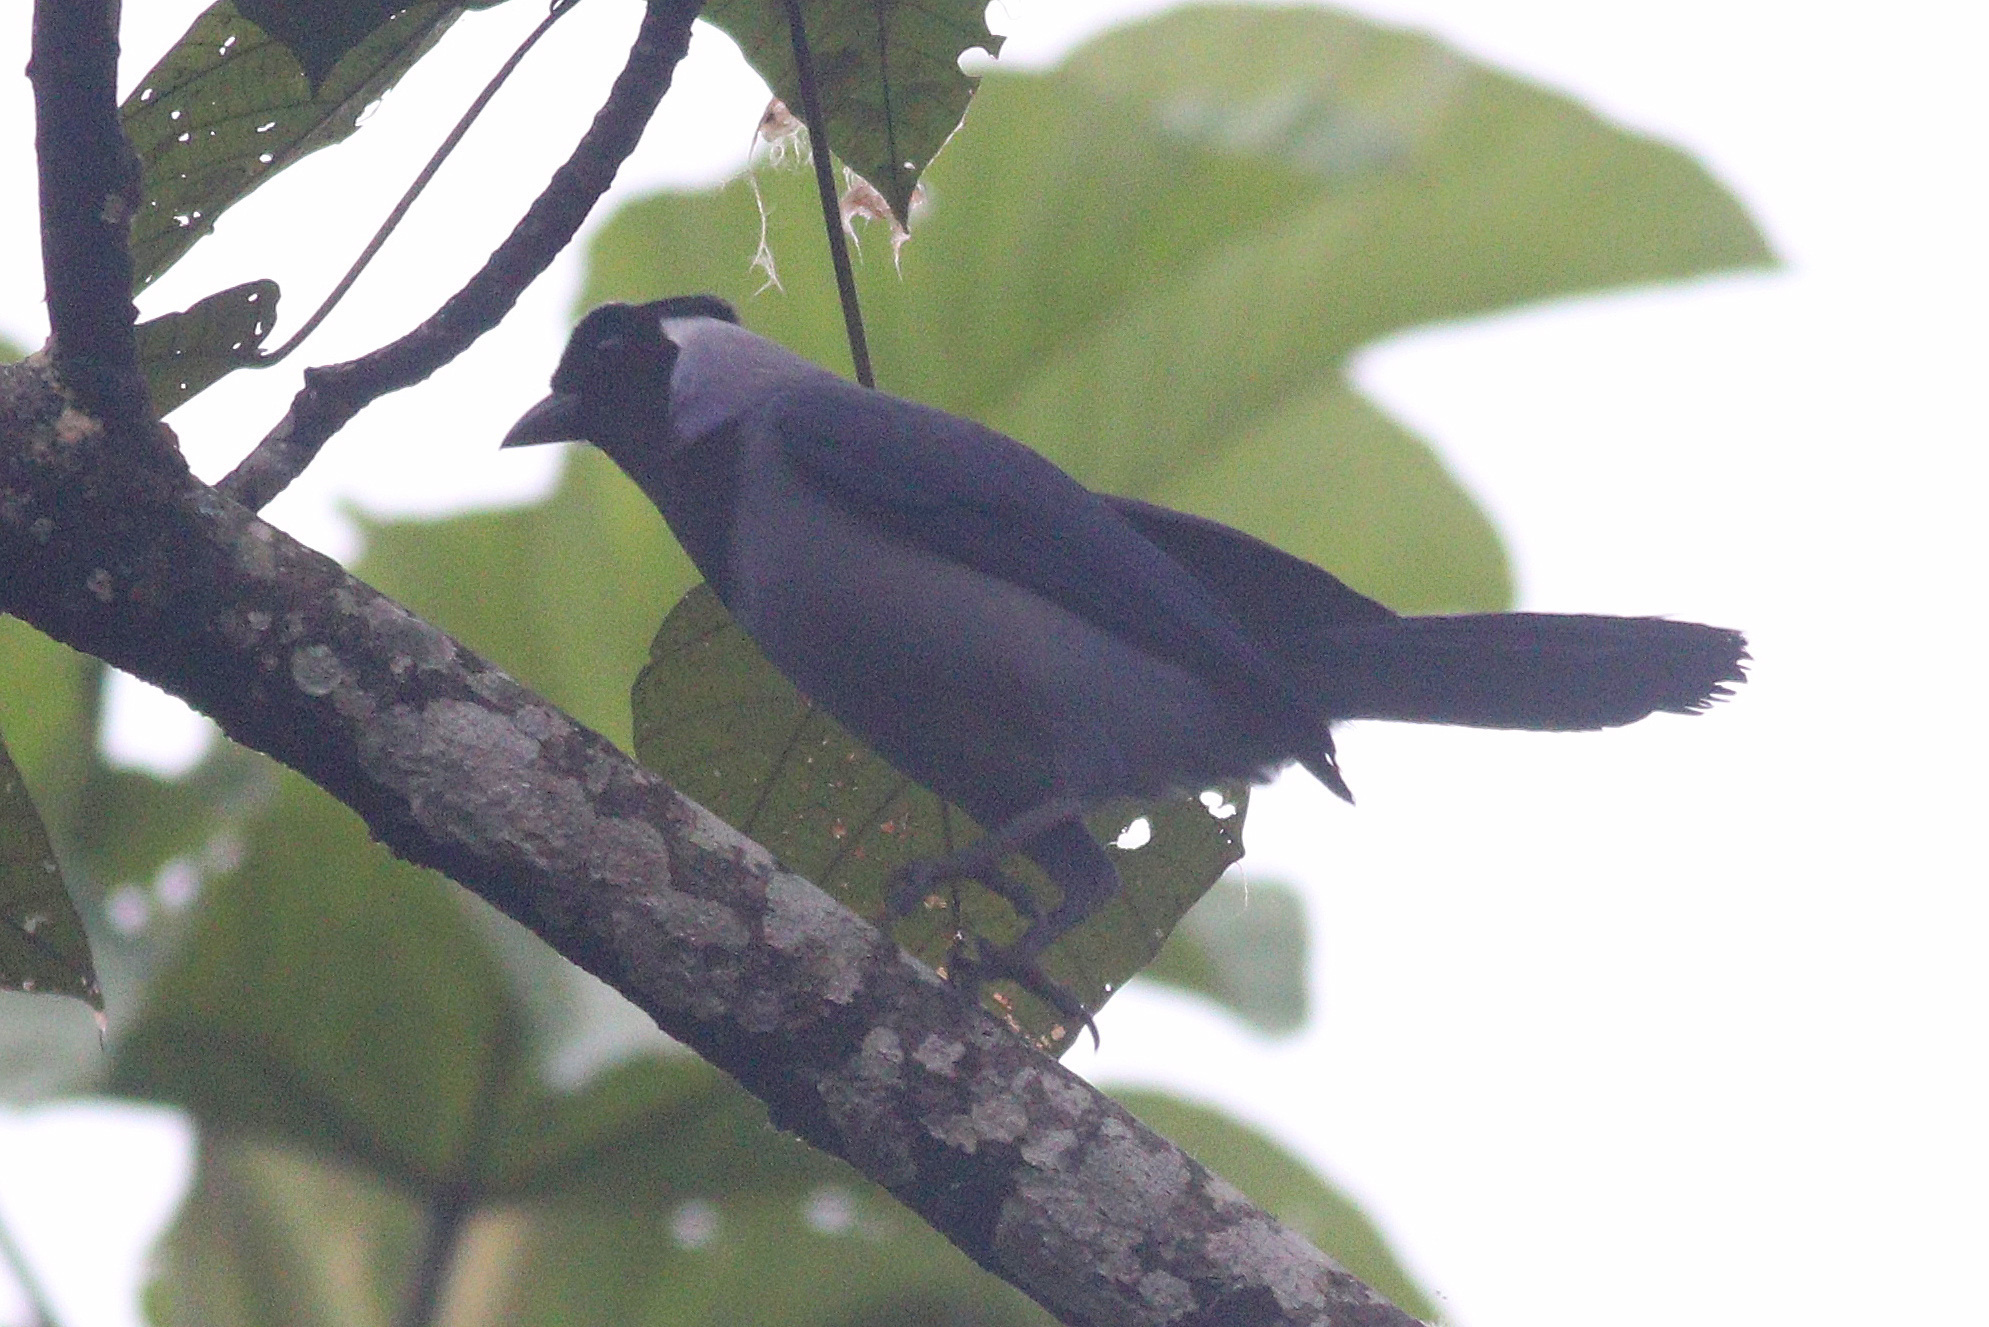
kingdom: Animalia
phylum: Chordata
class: Aves
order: Passeriformes
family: Corvidae
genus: Cyanocorax
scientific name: Cyanocorax violaceus
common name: Violaceous jay
